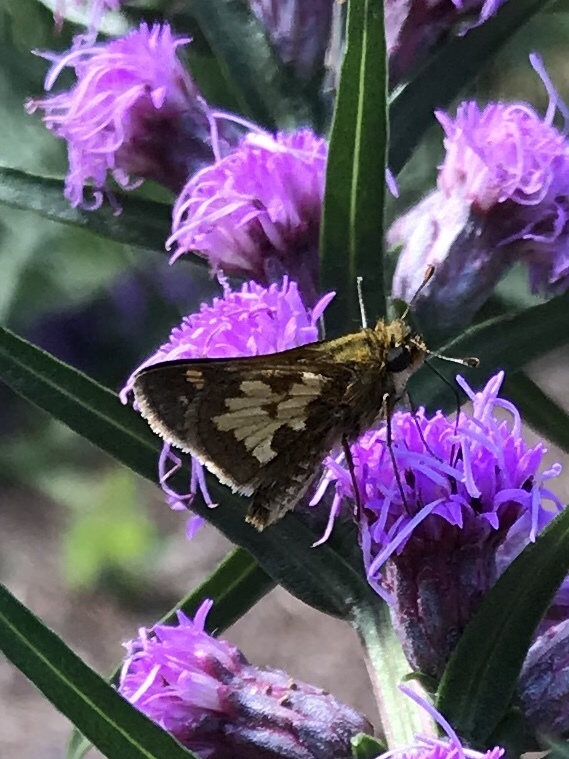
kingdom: Animalia
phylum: Arthropoda
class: Insecta
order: Lepidoptera
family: Hesperiidae
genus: Polites
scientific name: Polites coras
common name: Peck's skipper
